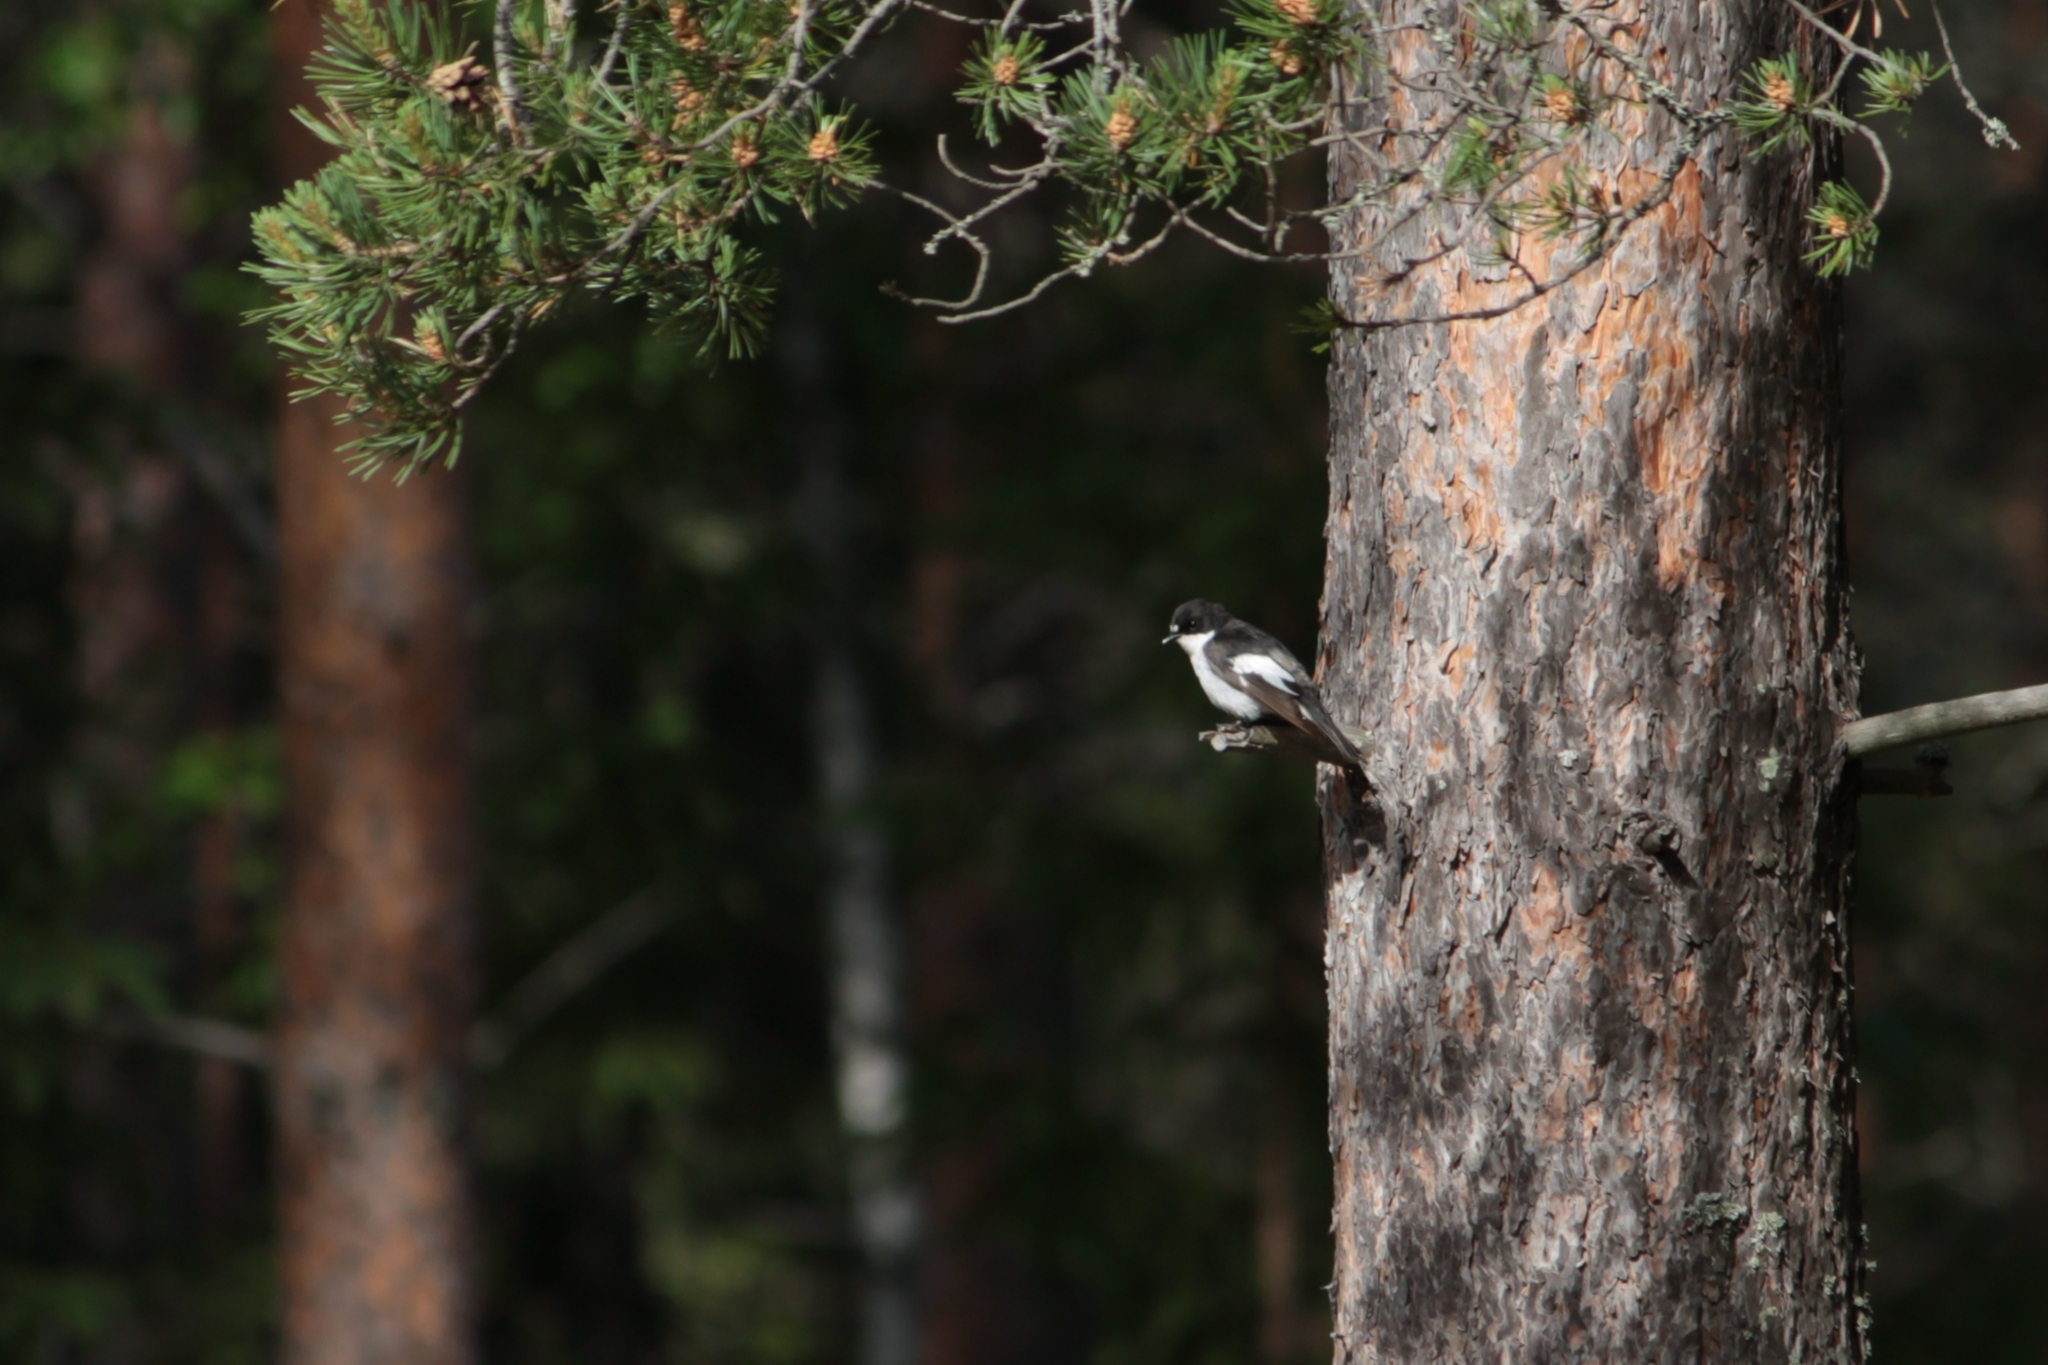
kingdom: Animalia
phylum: Chordata
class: Aves
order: Passeriformes
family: Muscicapidae
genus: Ficedula
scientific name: Ficedula hypoleuca
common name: European pied flycatcher
